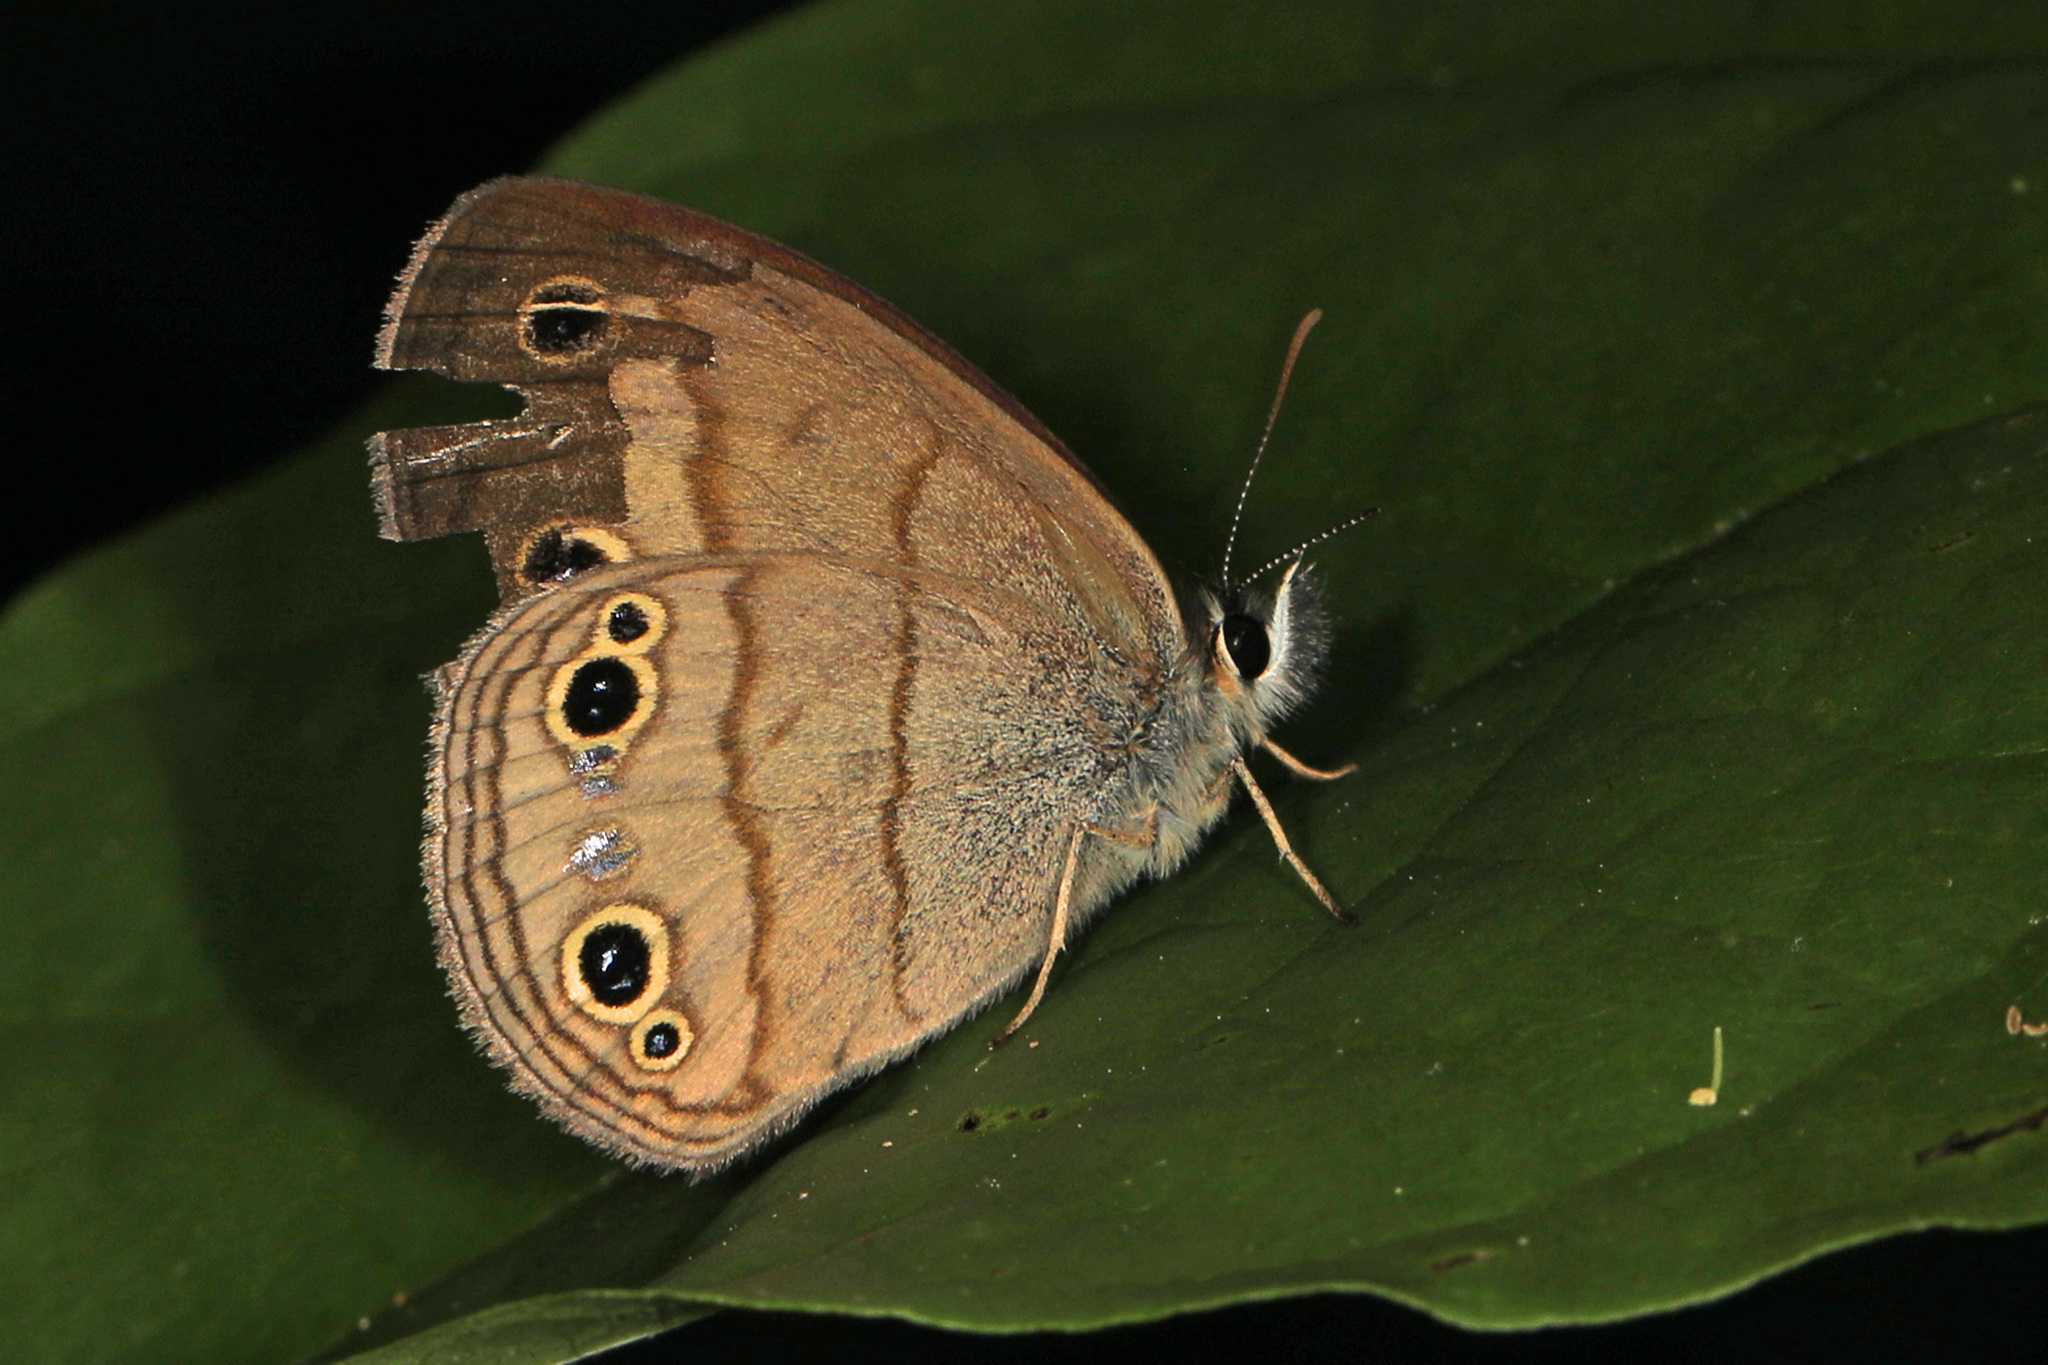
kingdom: Animalia
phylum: Arthropoda
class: Insecta
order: Lepidoptera
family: Nymphalidae
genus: Euptychia
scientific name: Euptychia cymela
